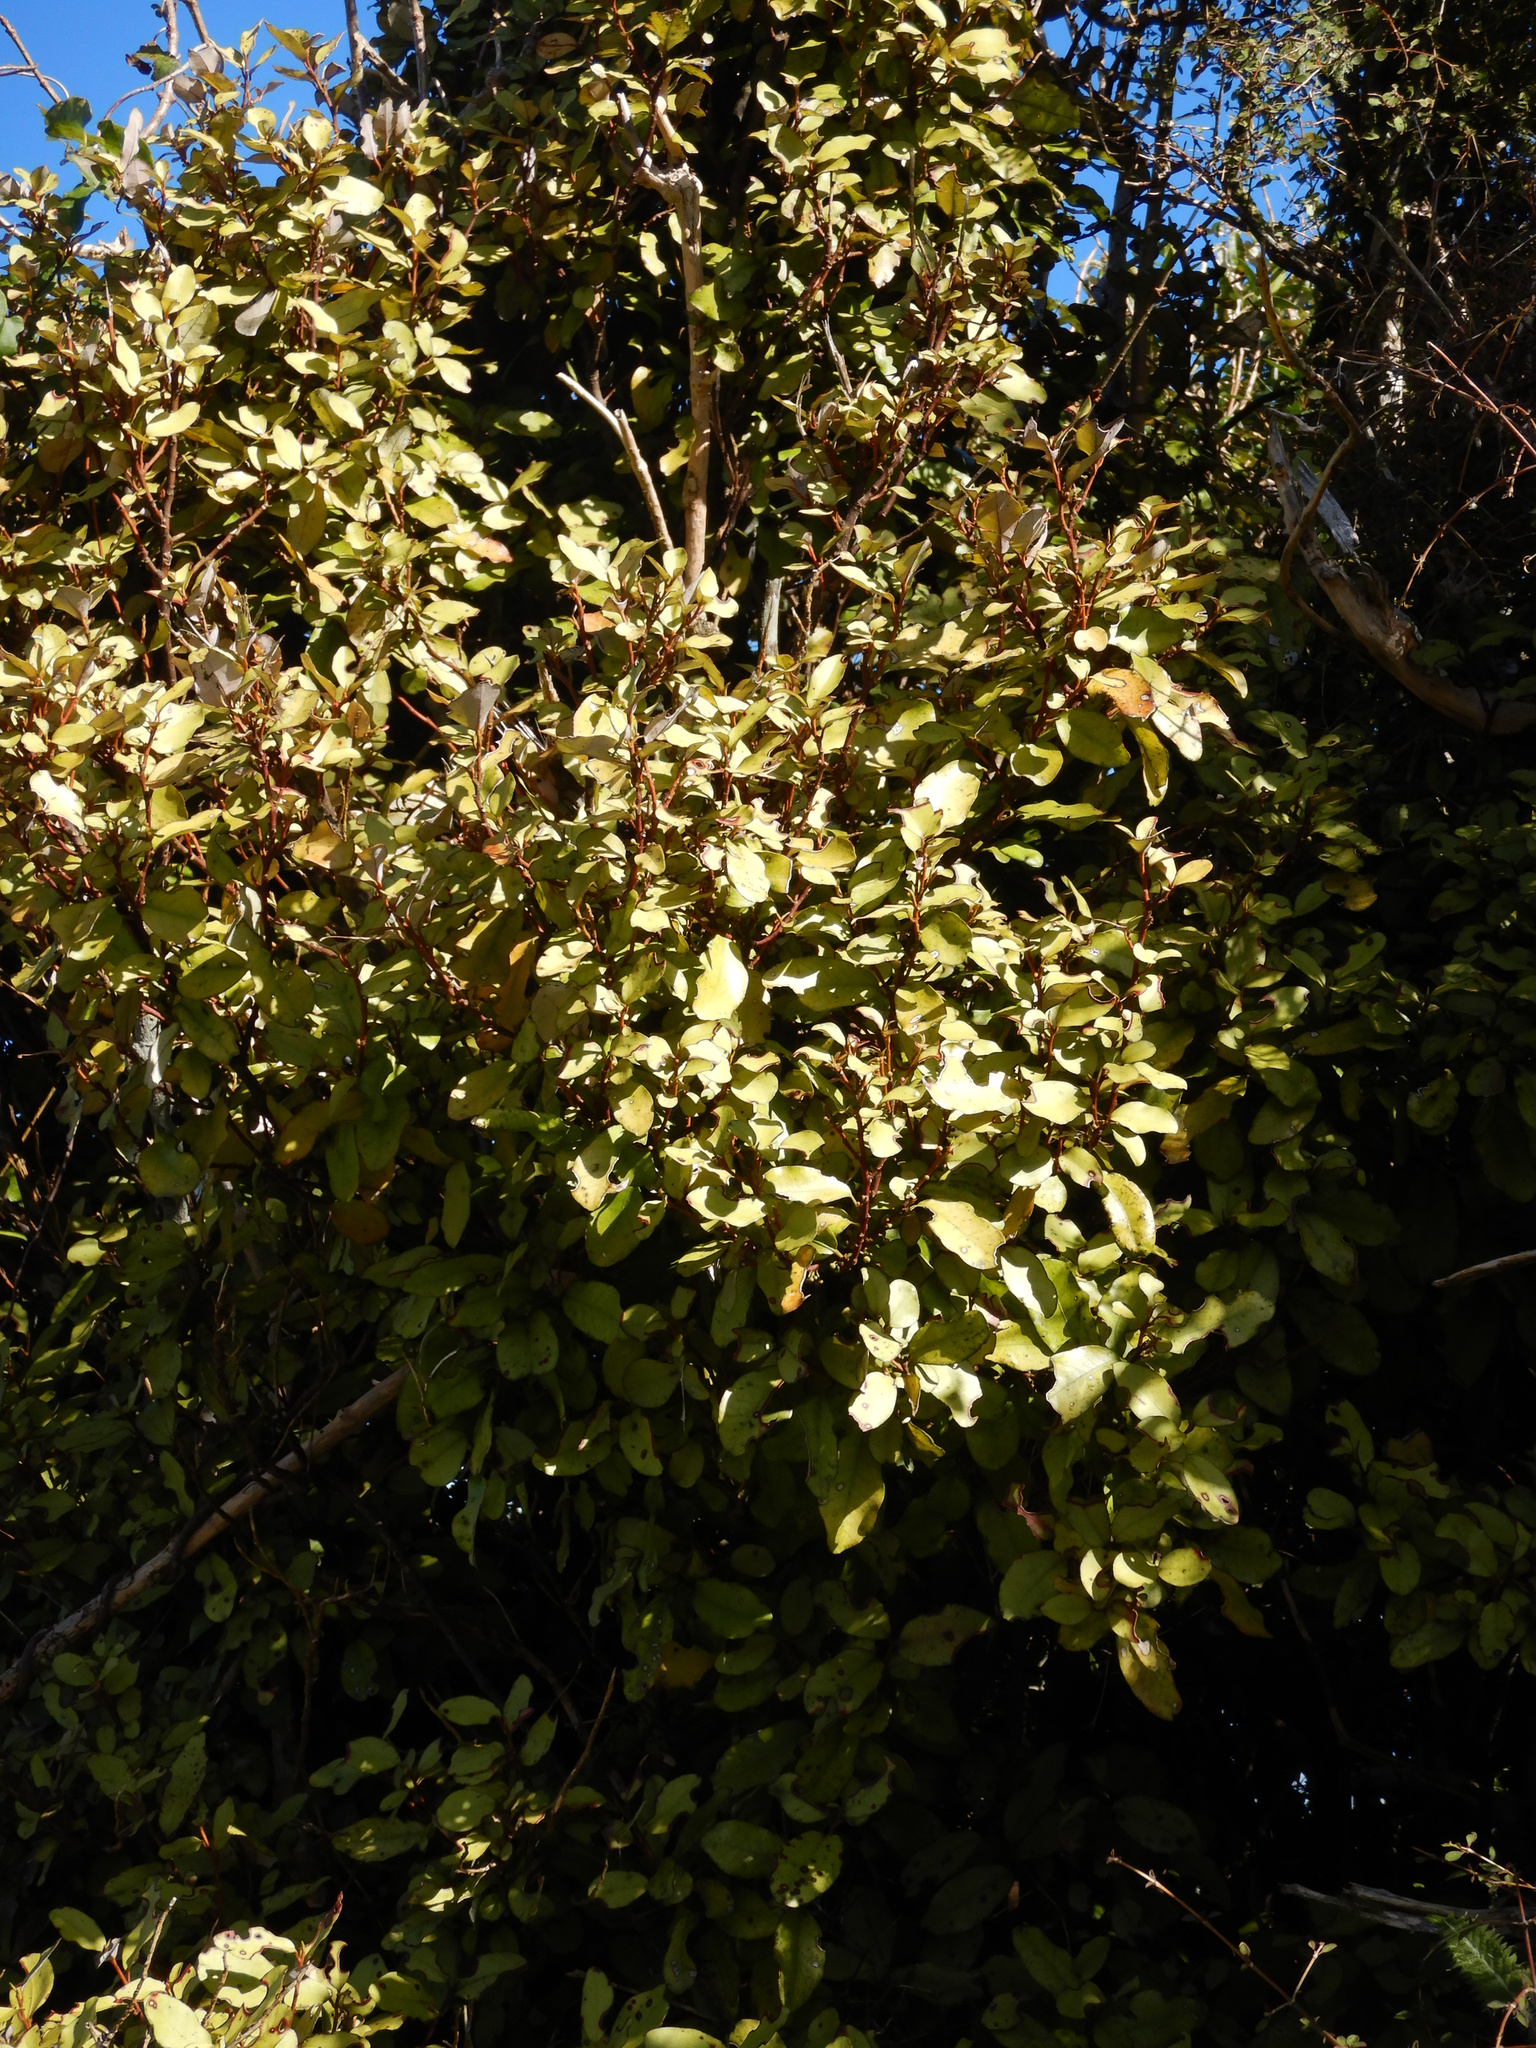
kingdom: Plantae
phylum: Tracheophyta
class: Magnoliopsida
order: Canellales
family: Winteraceae
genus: Pseudowintera
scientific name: Pseudowintera colorata
